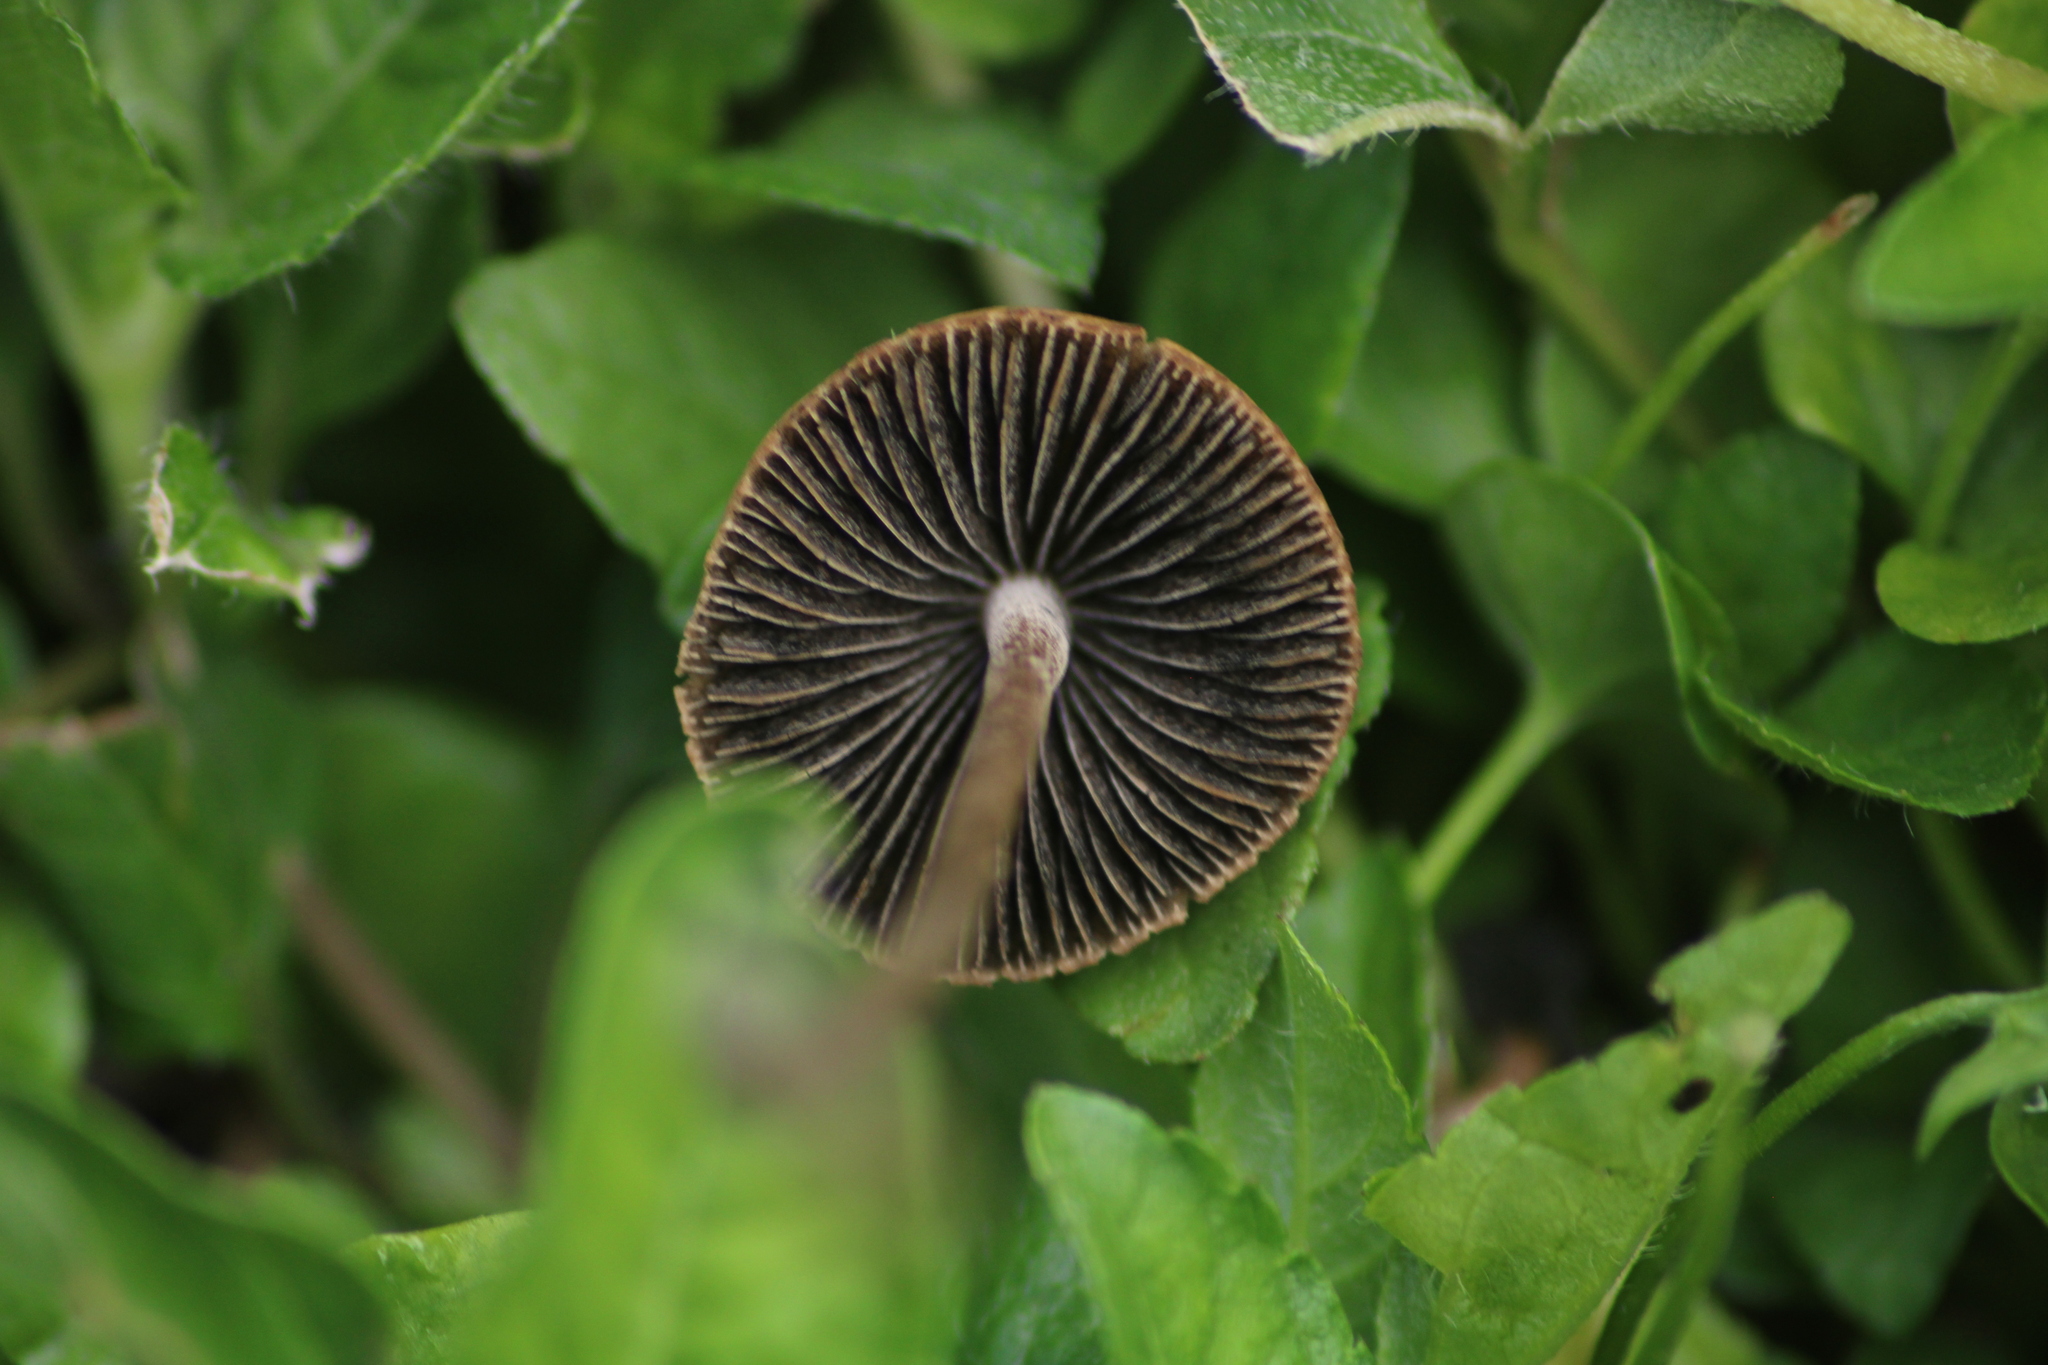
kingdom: Fungi
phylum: Basidiomycota
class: Agaricomycetes
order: Agaricales
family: Bolbitiaceae
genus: Panaeolus
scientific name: Panaeolus cinctulus
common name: Banded mottlegill
